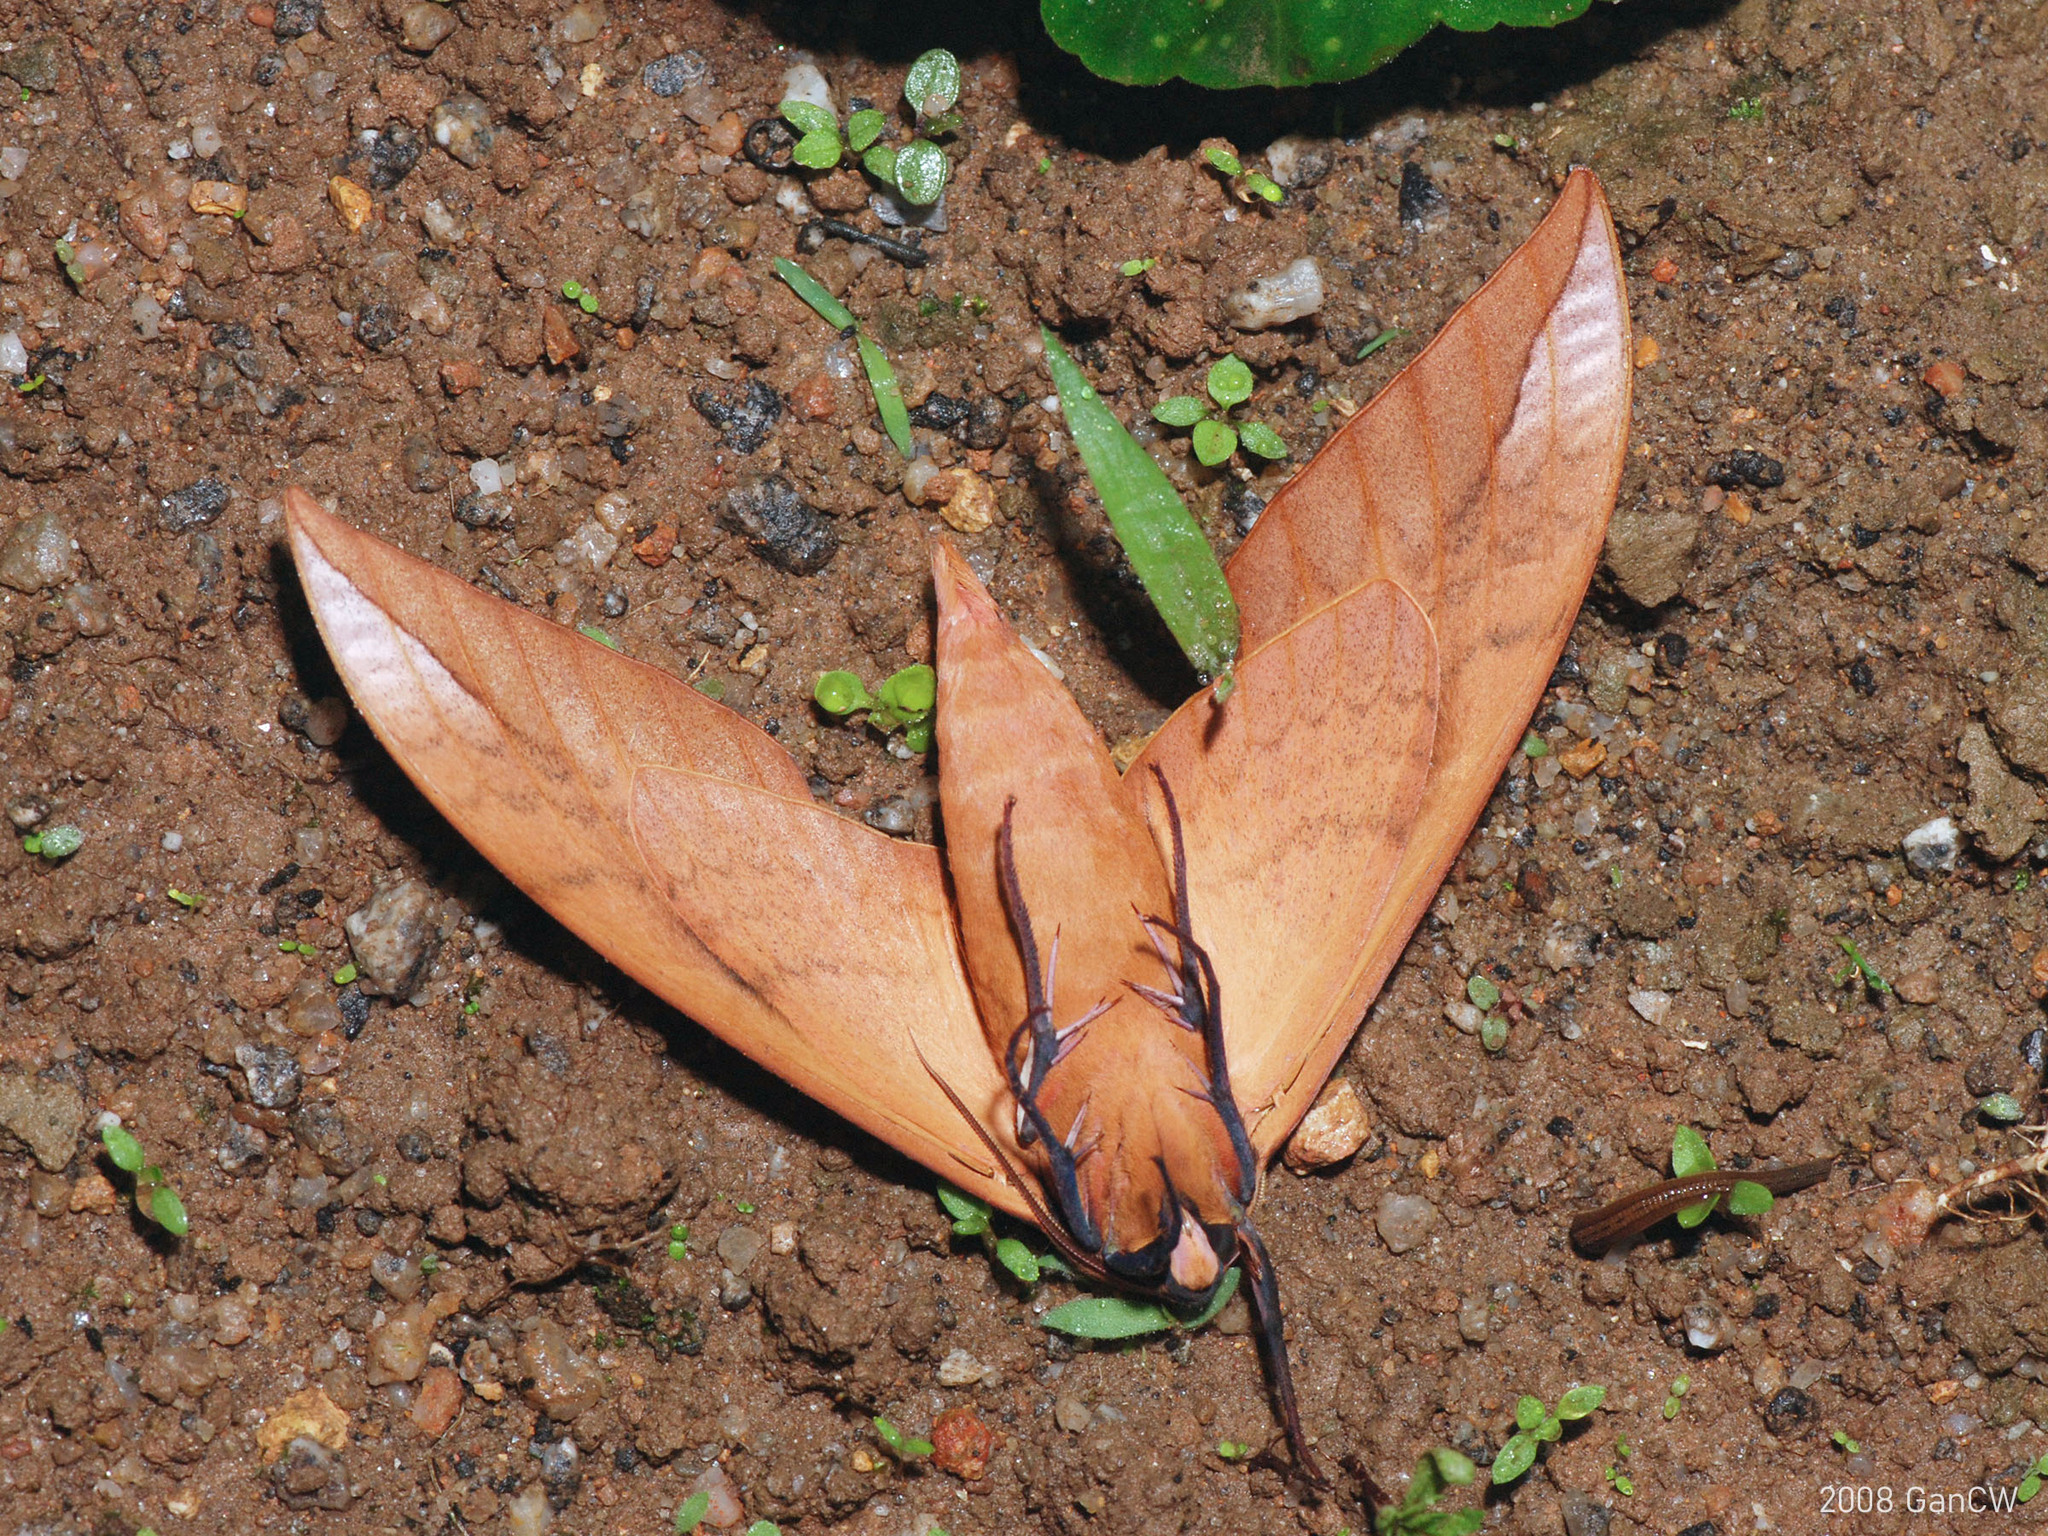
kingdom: Animalia
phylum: Arthropoda
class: Insecta
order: Lepidoptera
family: Sphingidae
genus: Clanis
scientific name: Clanis undulosa
